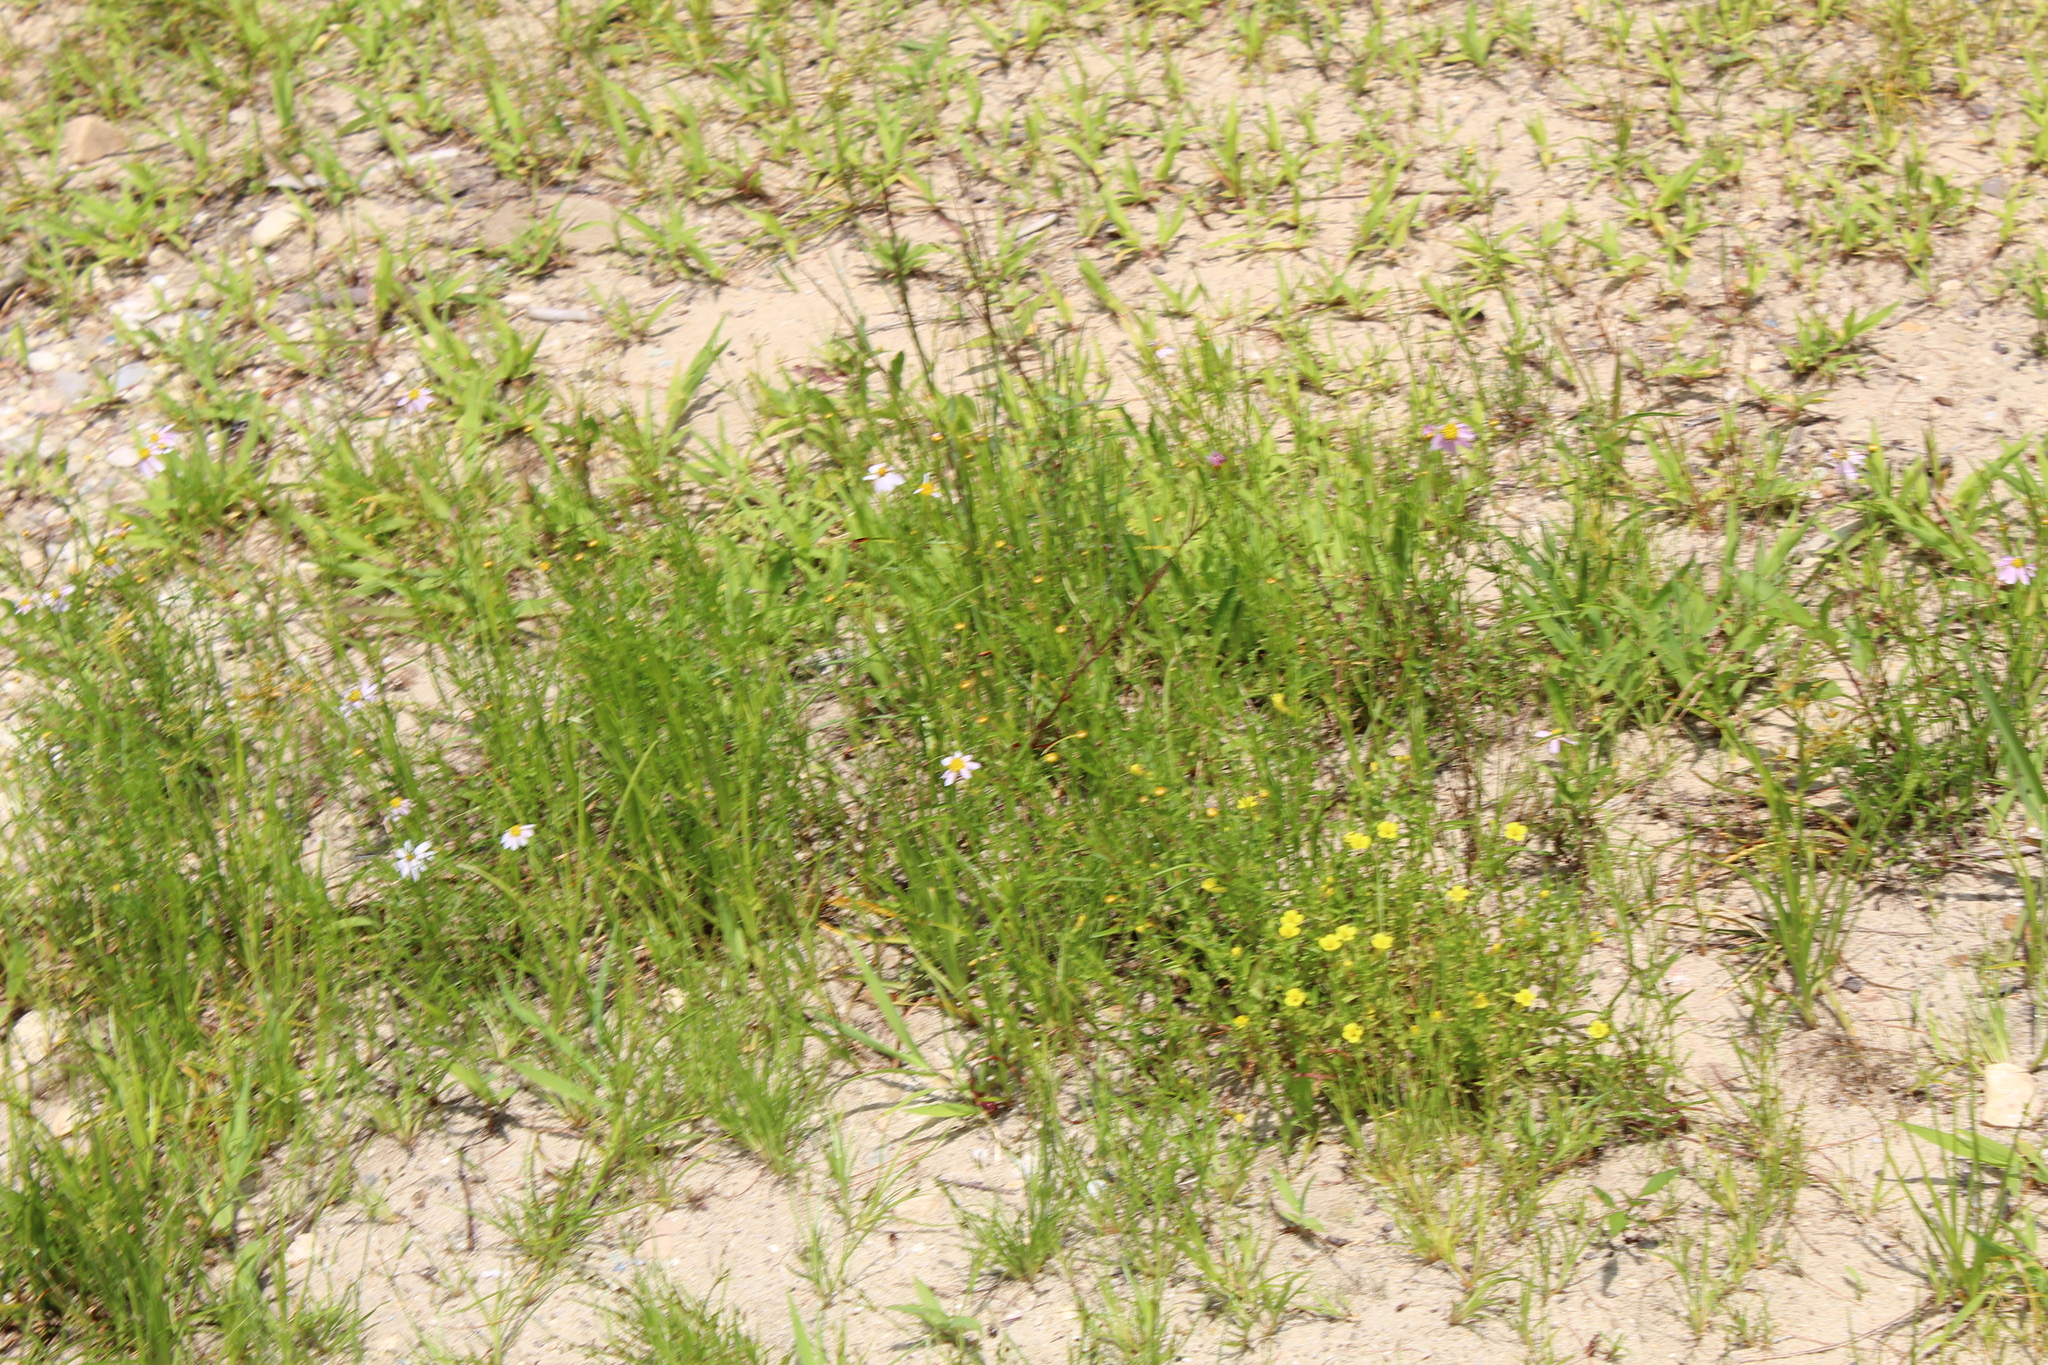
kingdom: Plantae
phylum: Tracheophyta
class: Magnoliopsida
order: Asterales
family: Asteraceae
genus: Coreopsis
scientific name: Coreopsis rosea
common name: Pink coreopsis
